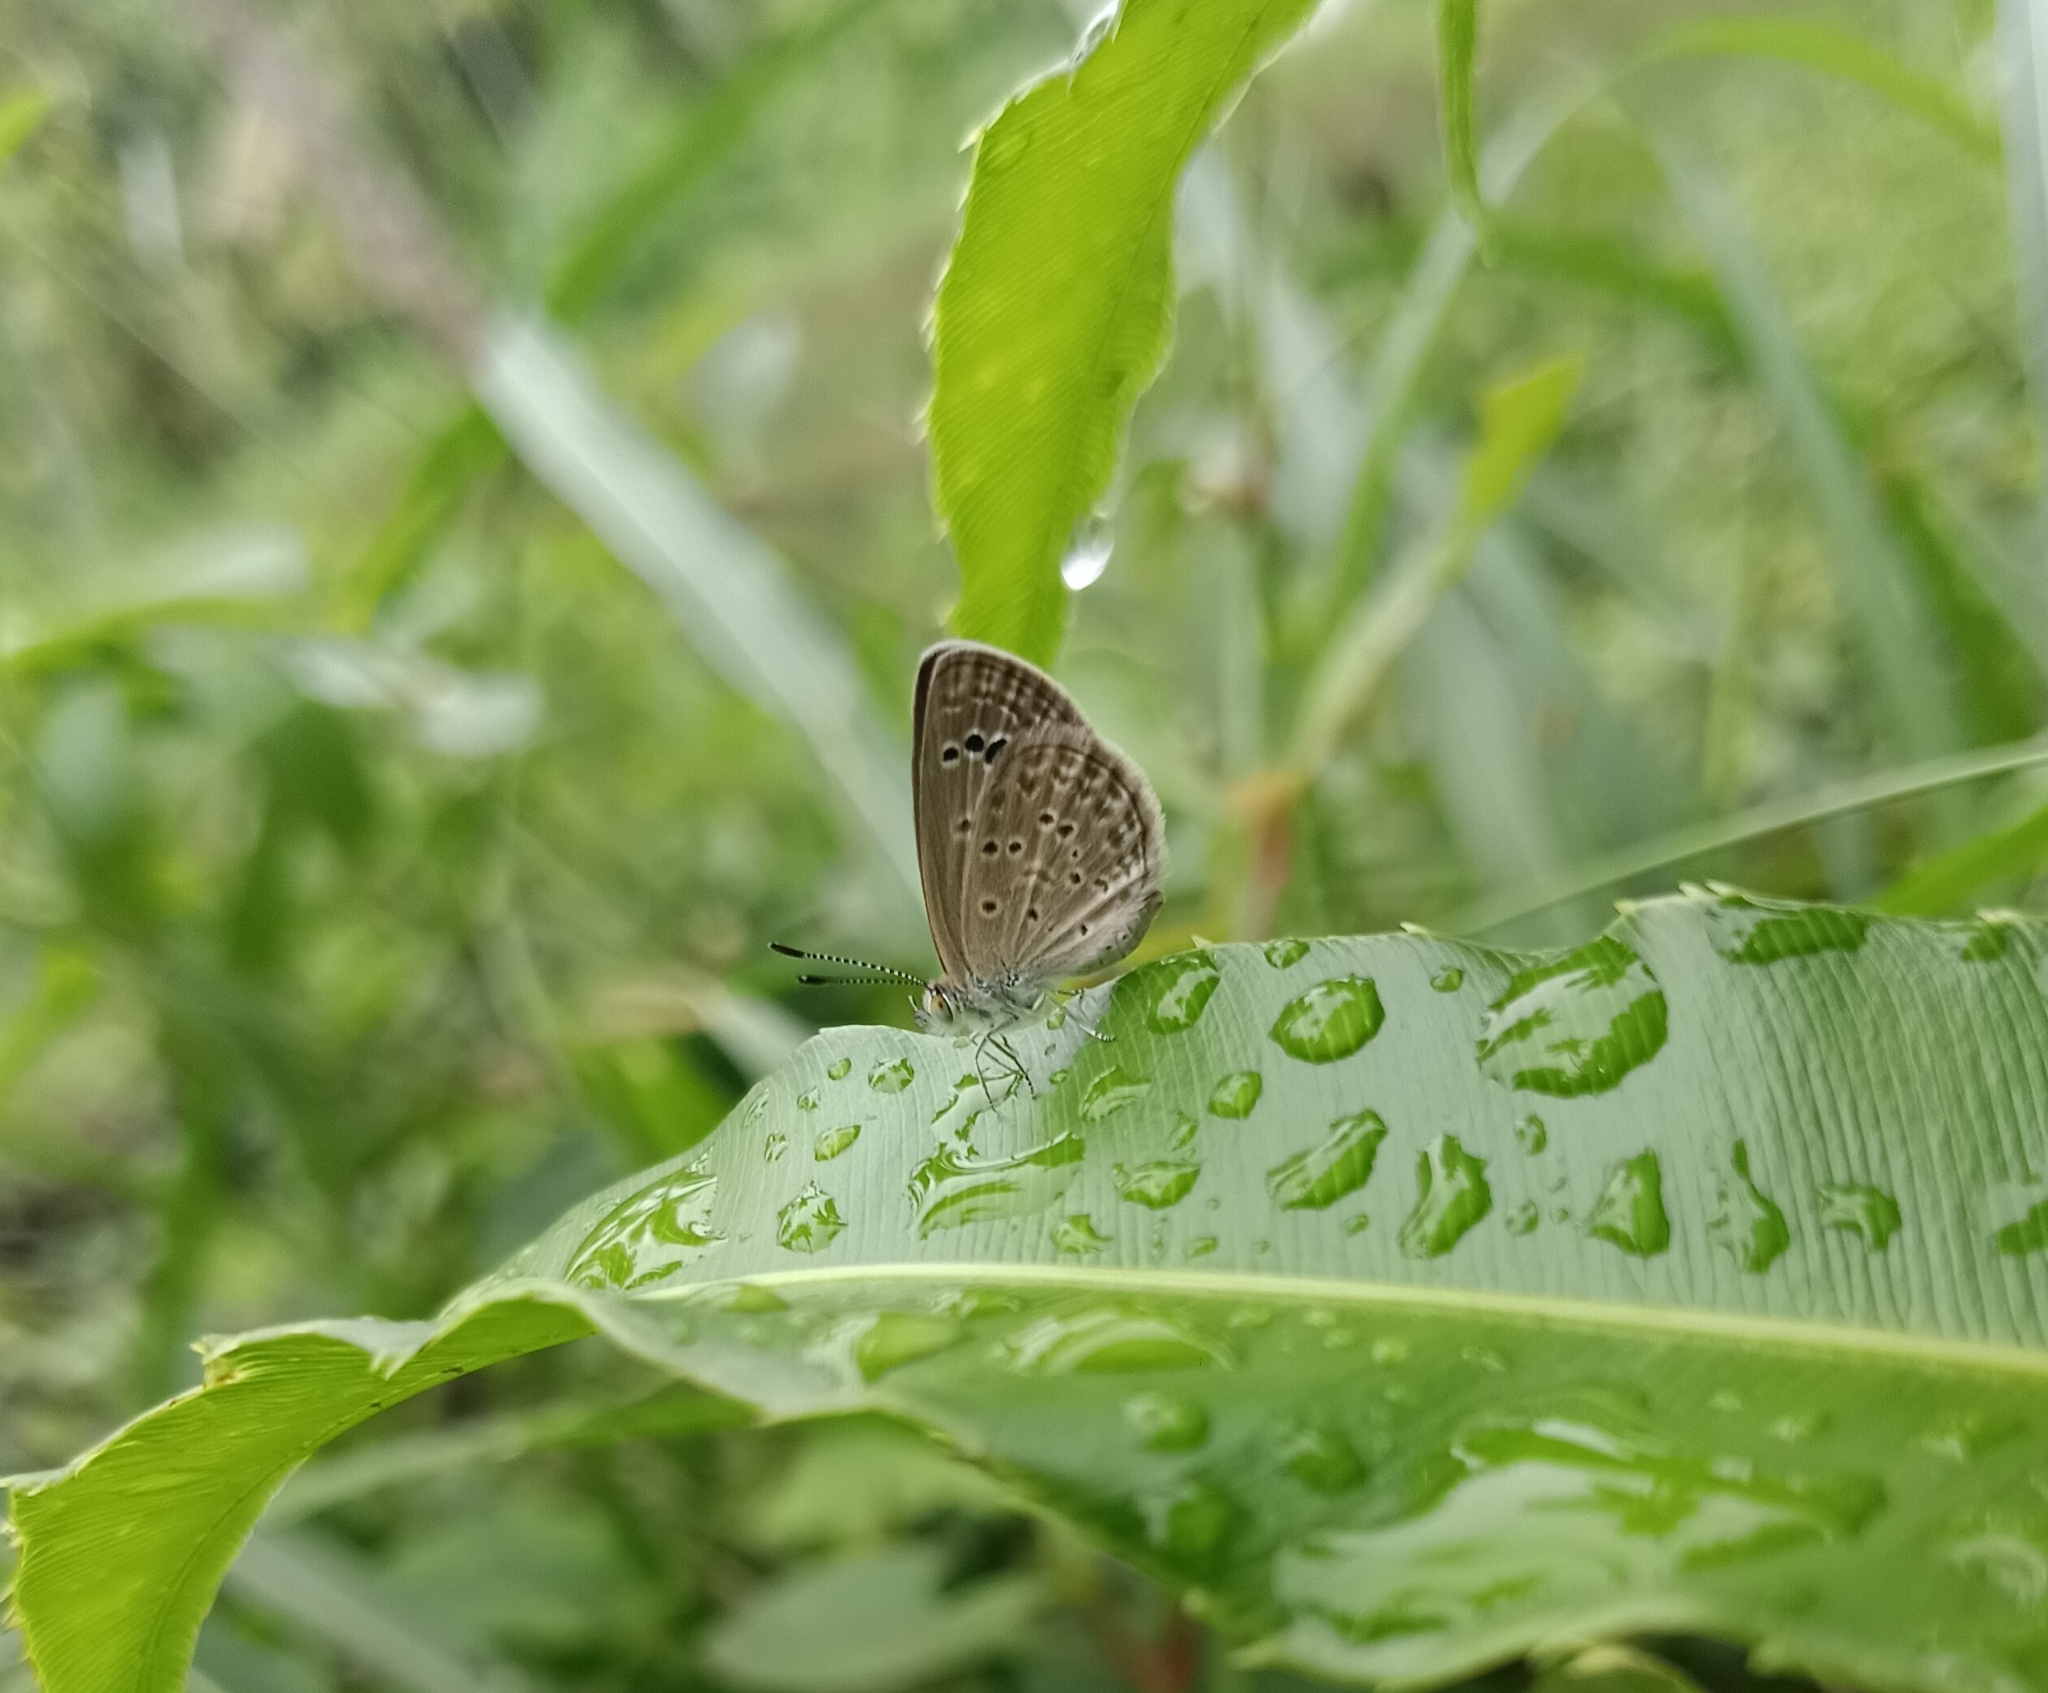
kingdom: Animalia
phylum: Arthropoda
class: Insecta
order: Lepidoptera
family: Lycaenidae
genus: Zizina
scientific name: Zizina otis
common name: Lesser grass blue
